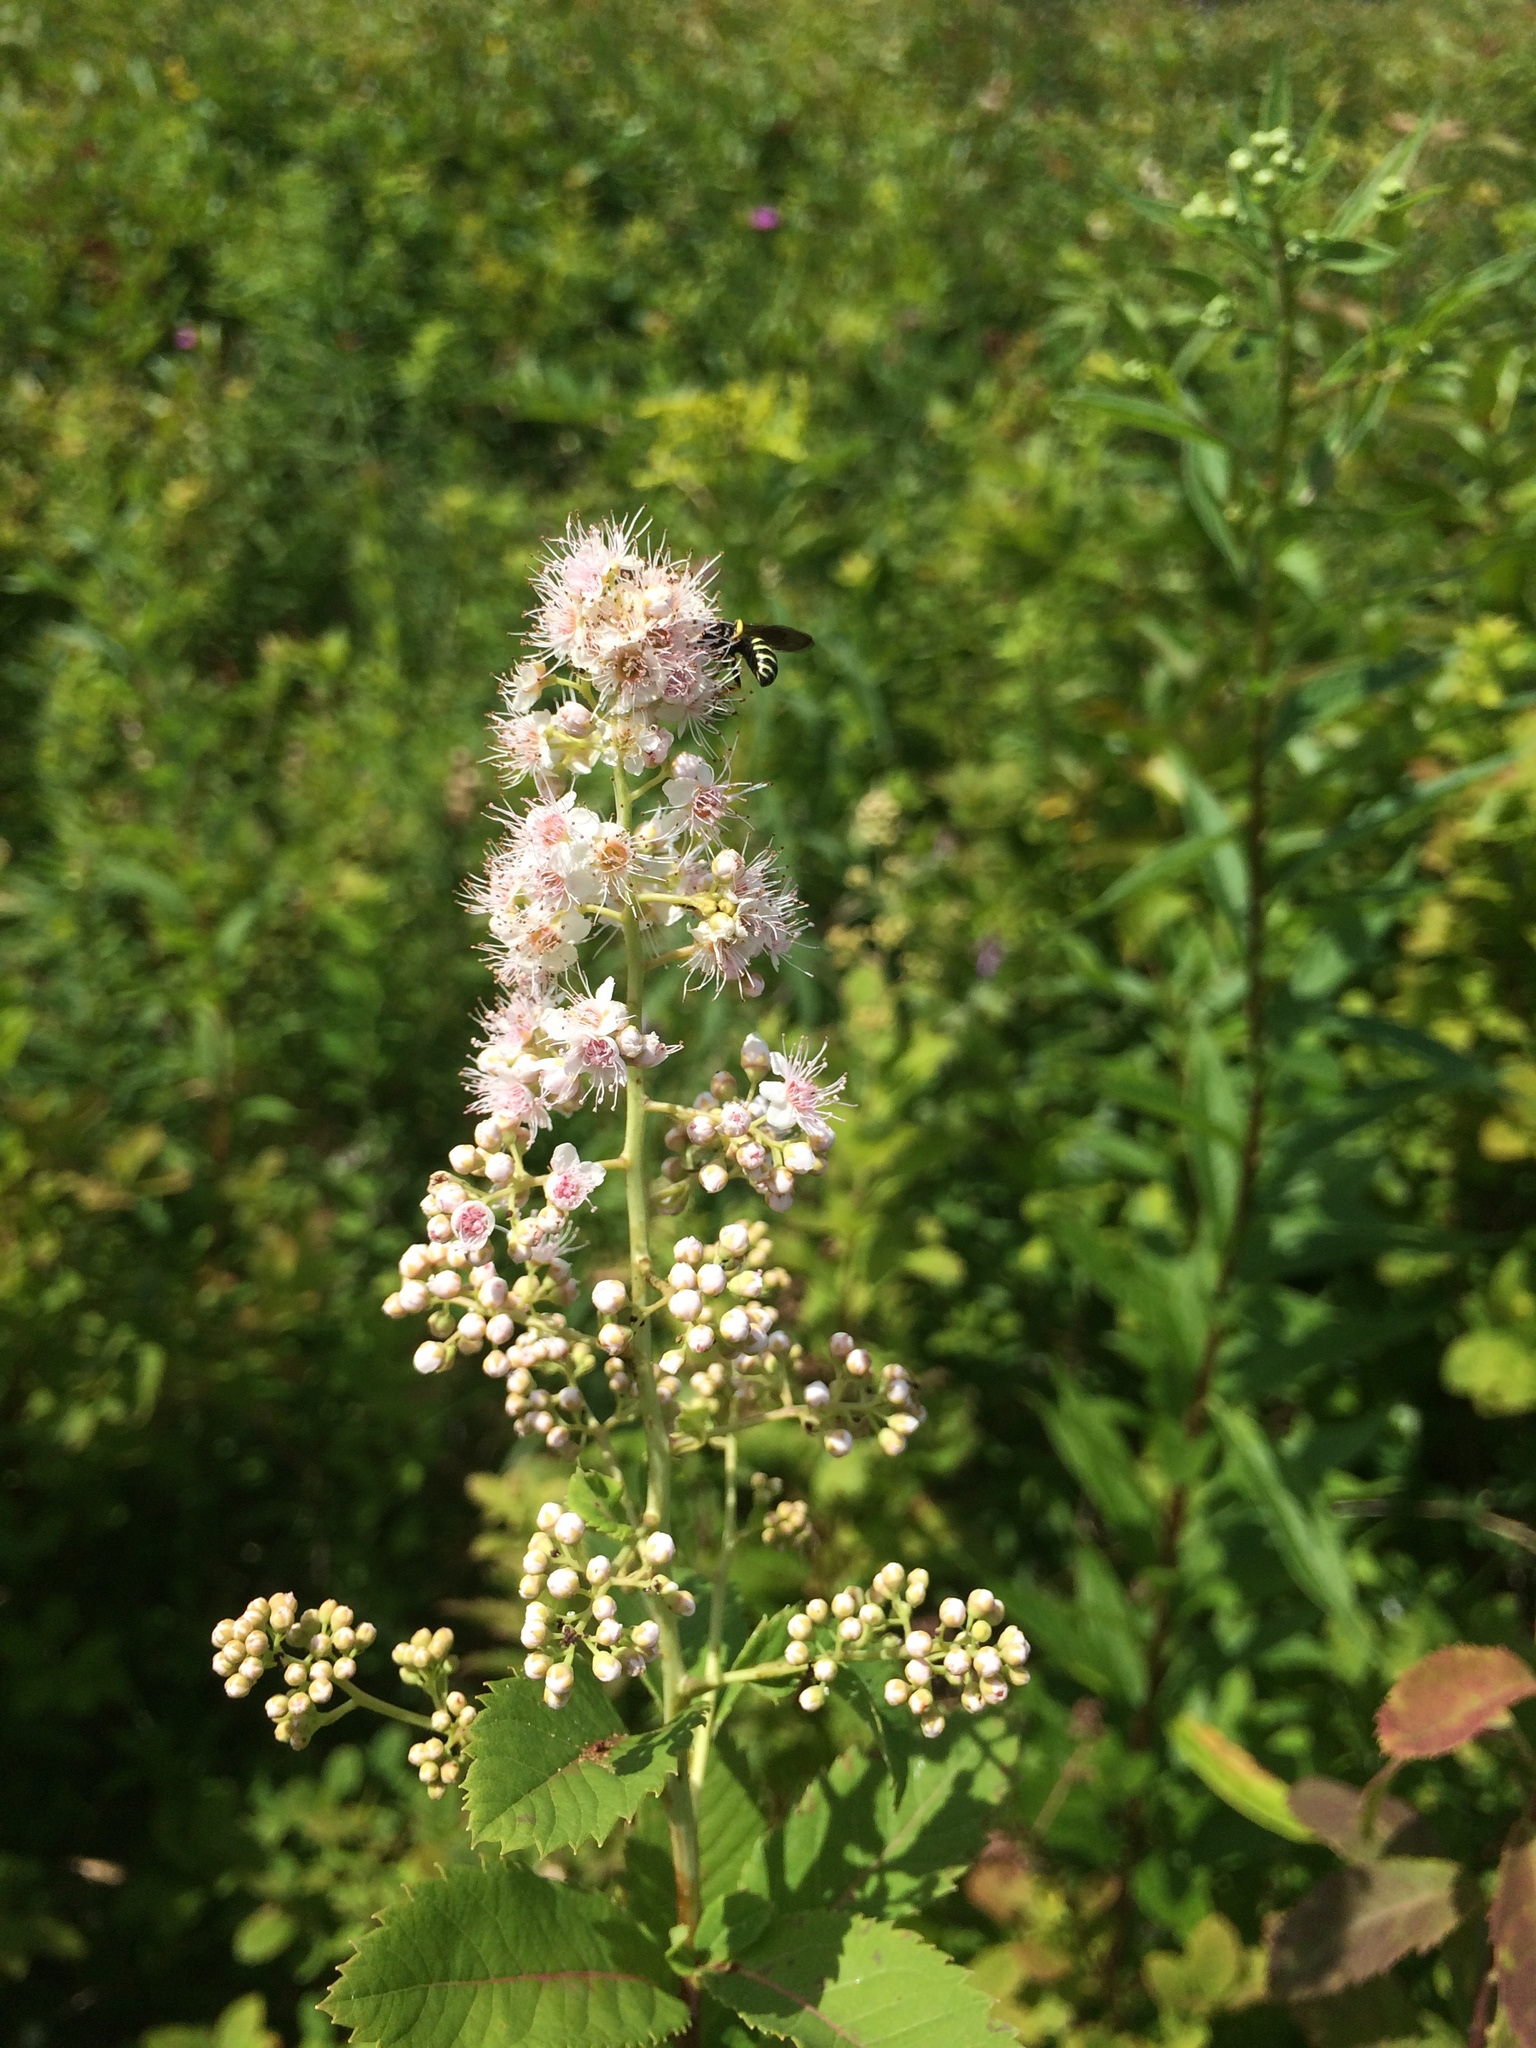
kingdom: Plantae
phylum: Tracheophyta
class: Magnoliopsida
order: Rosales
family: Rosaceae
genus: Spiraea
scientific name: Spiraea alba
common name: Pale bridewort
